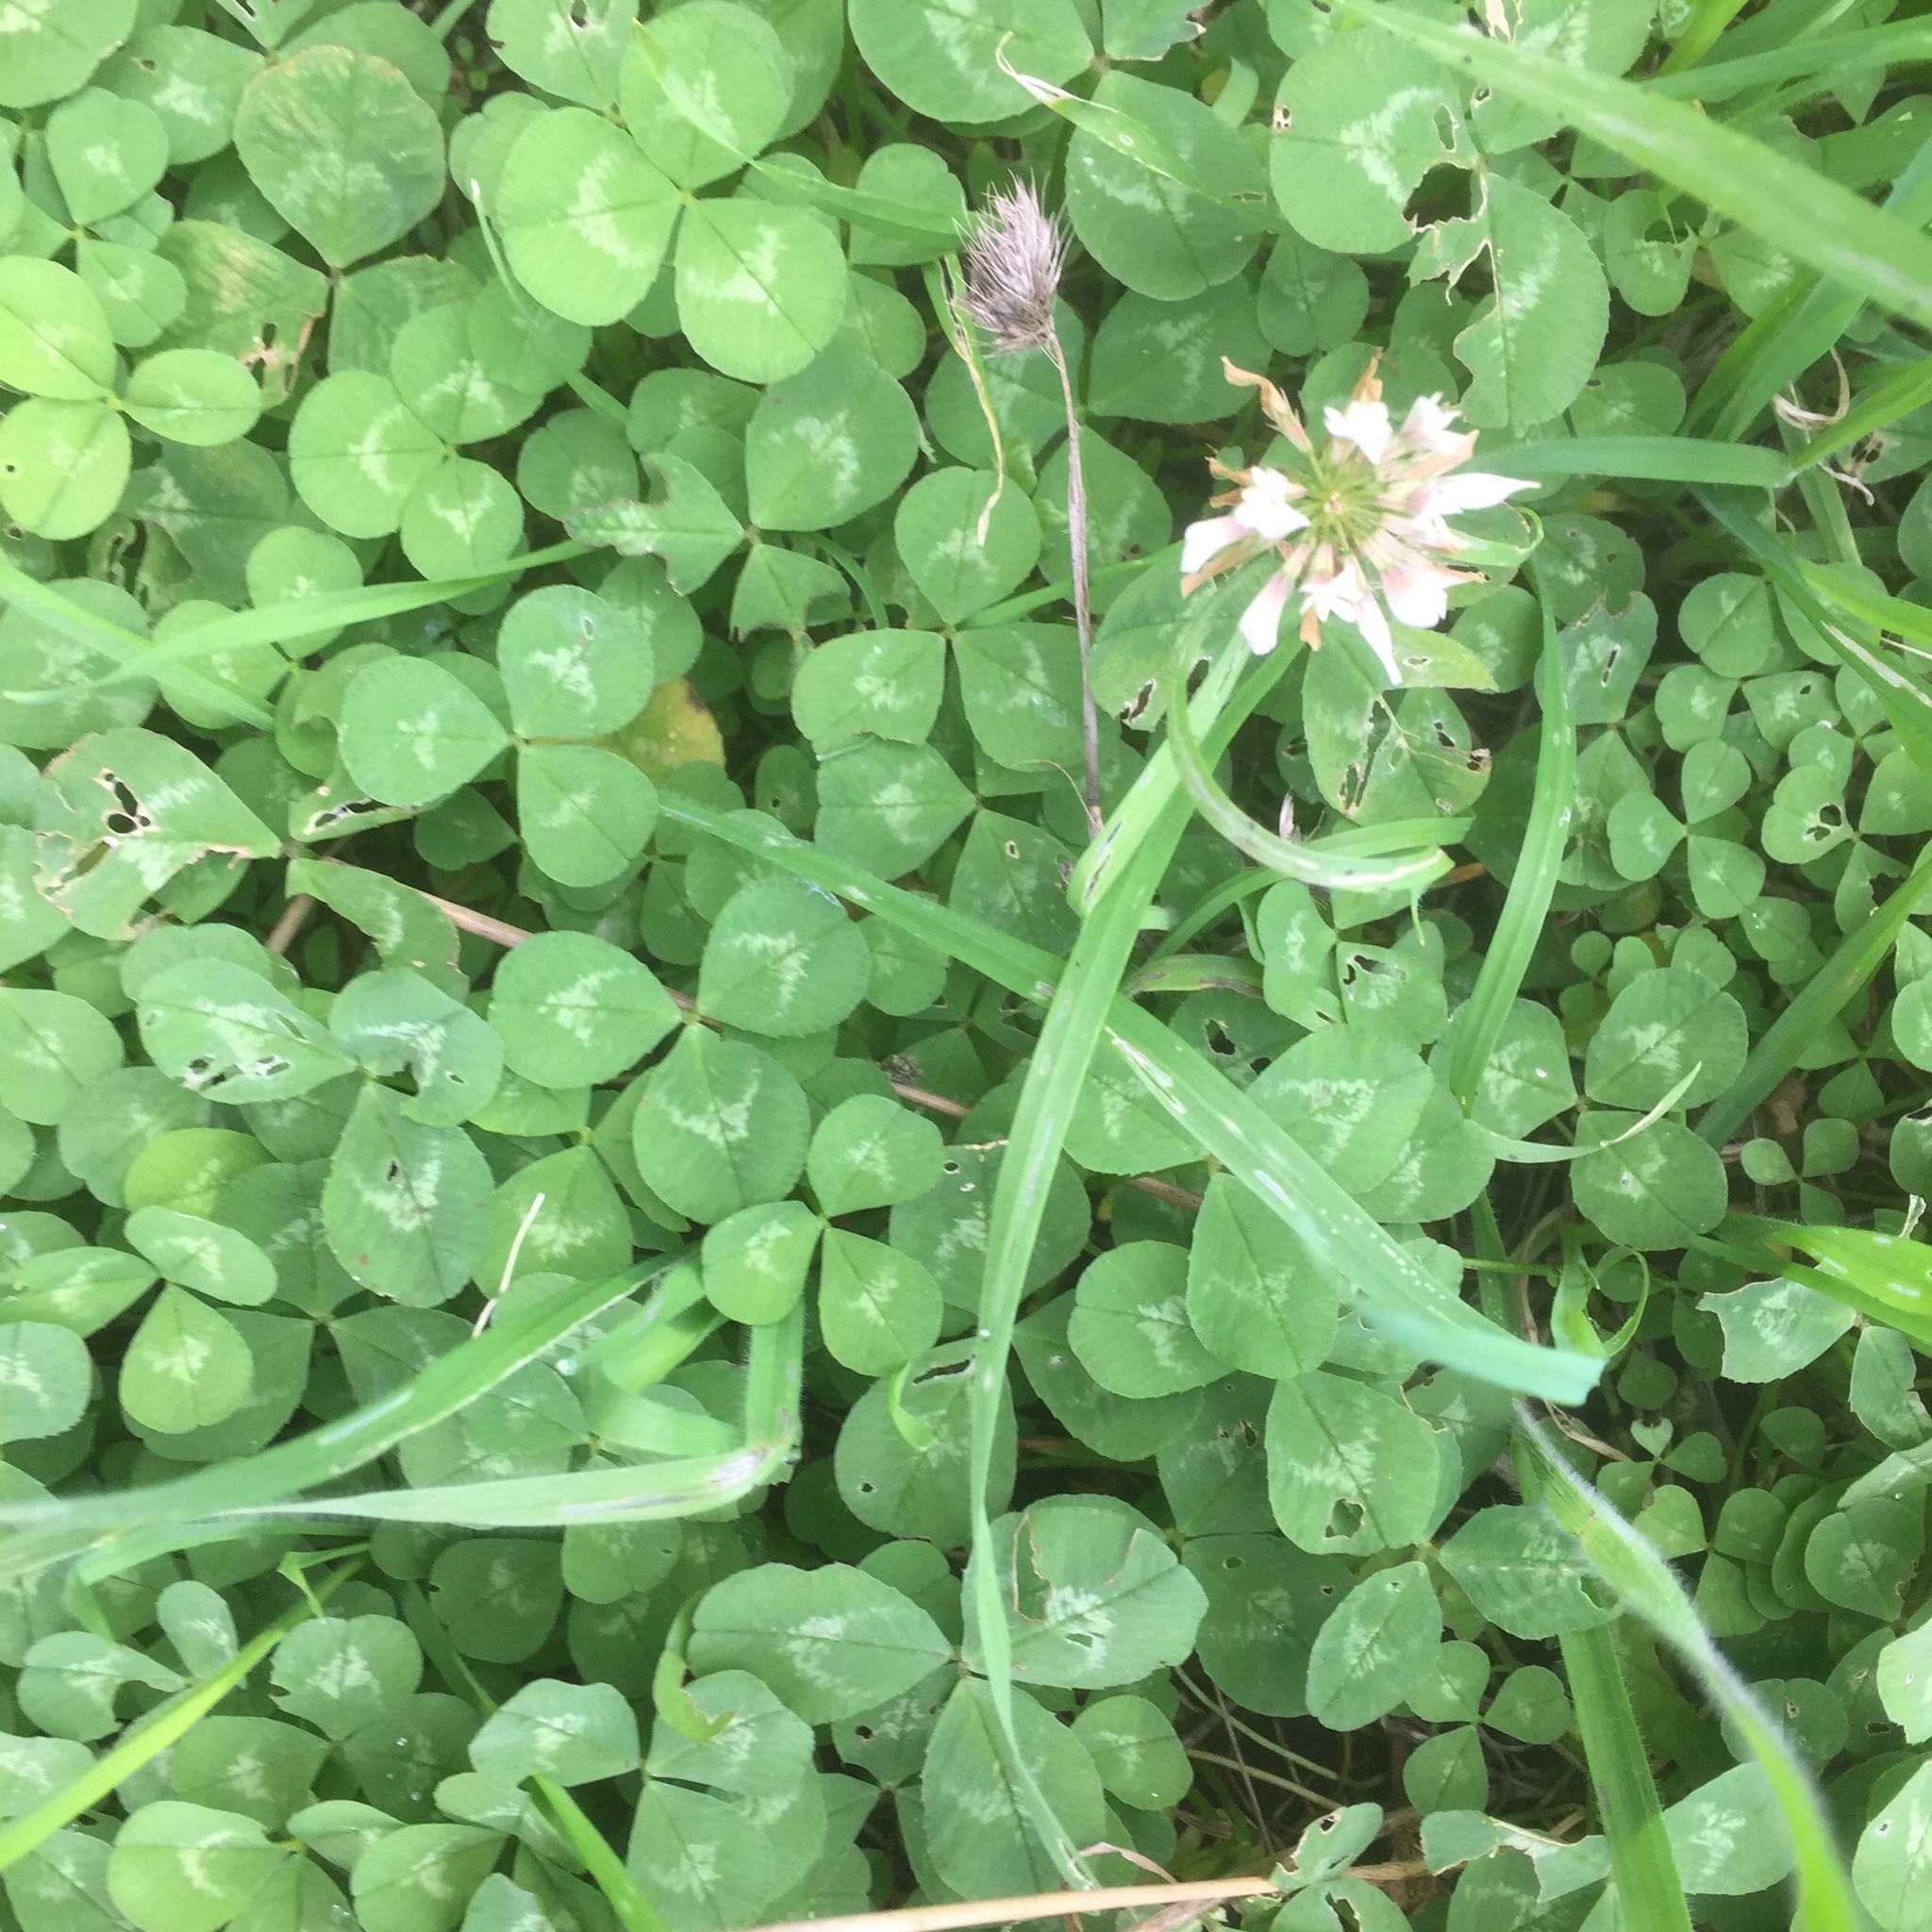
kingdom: Plantae
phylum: Tracheophyta
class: Magnoliopsida
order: Fabales
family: Fabaceae
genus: Trifolium
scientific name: Trifolium repens
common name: White clover
